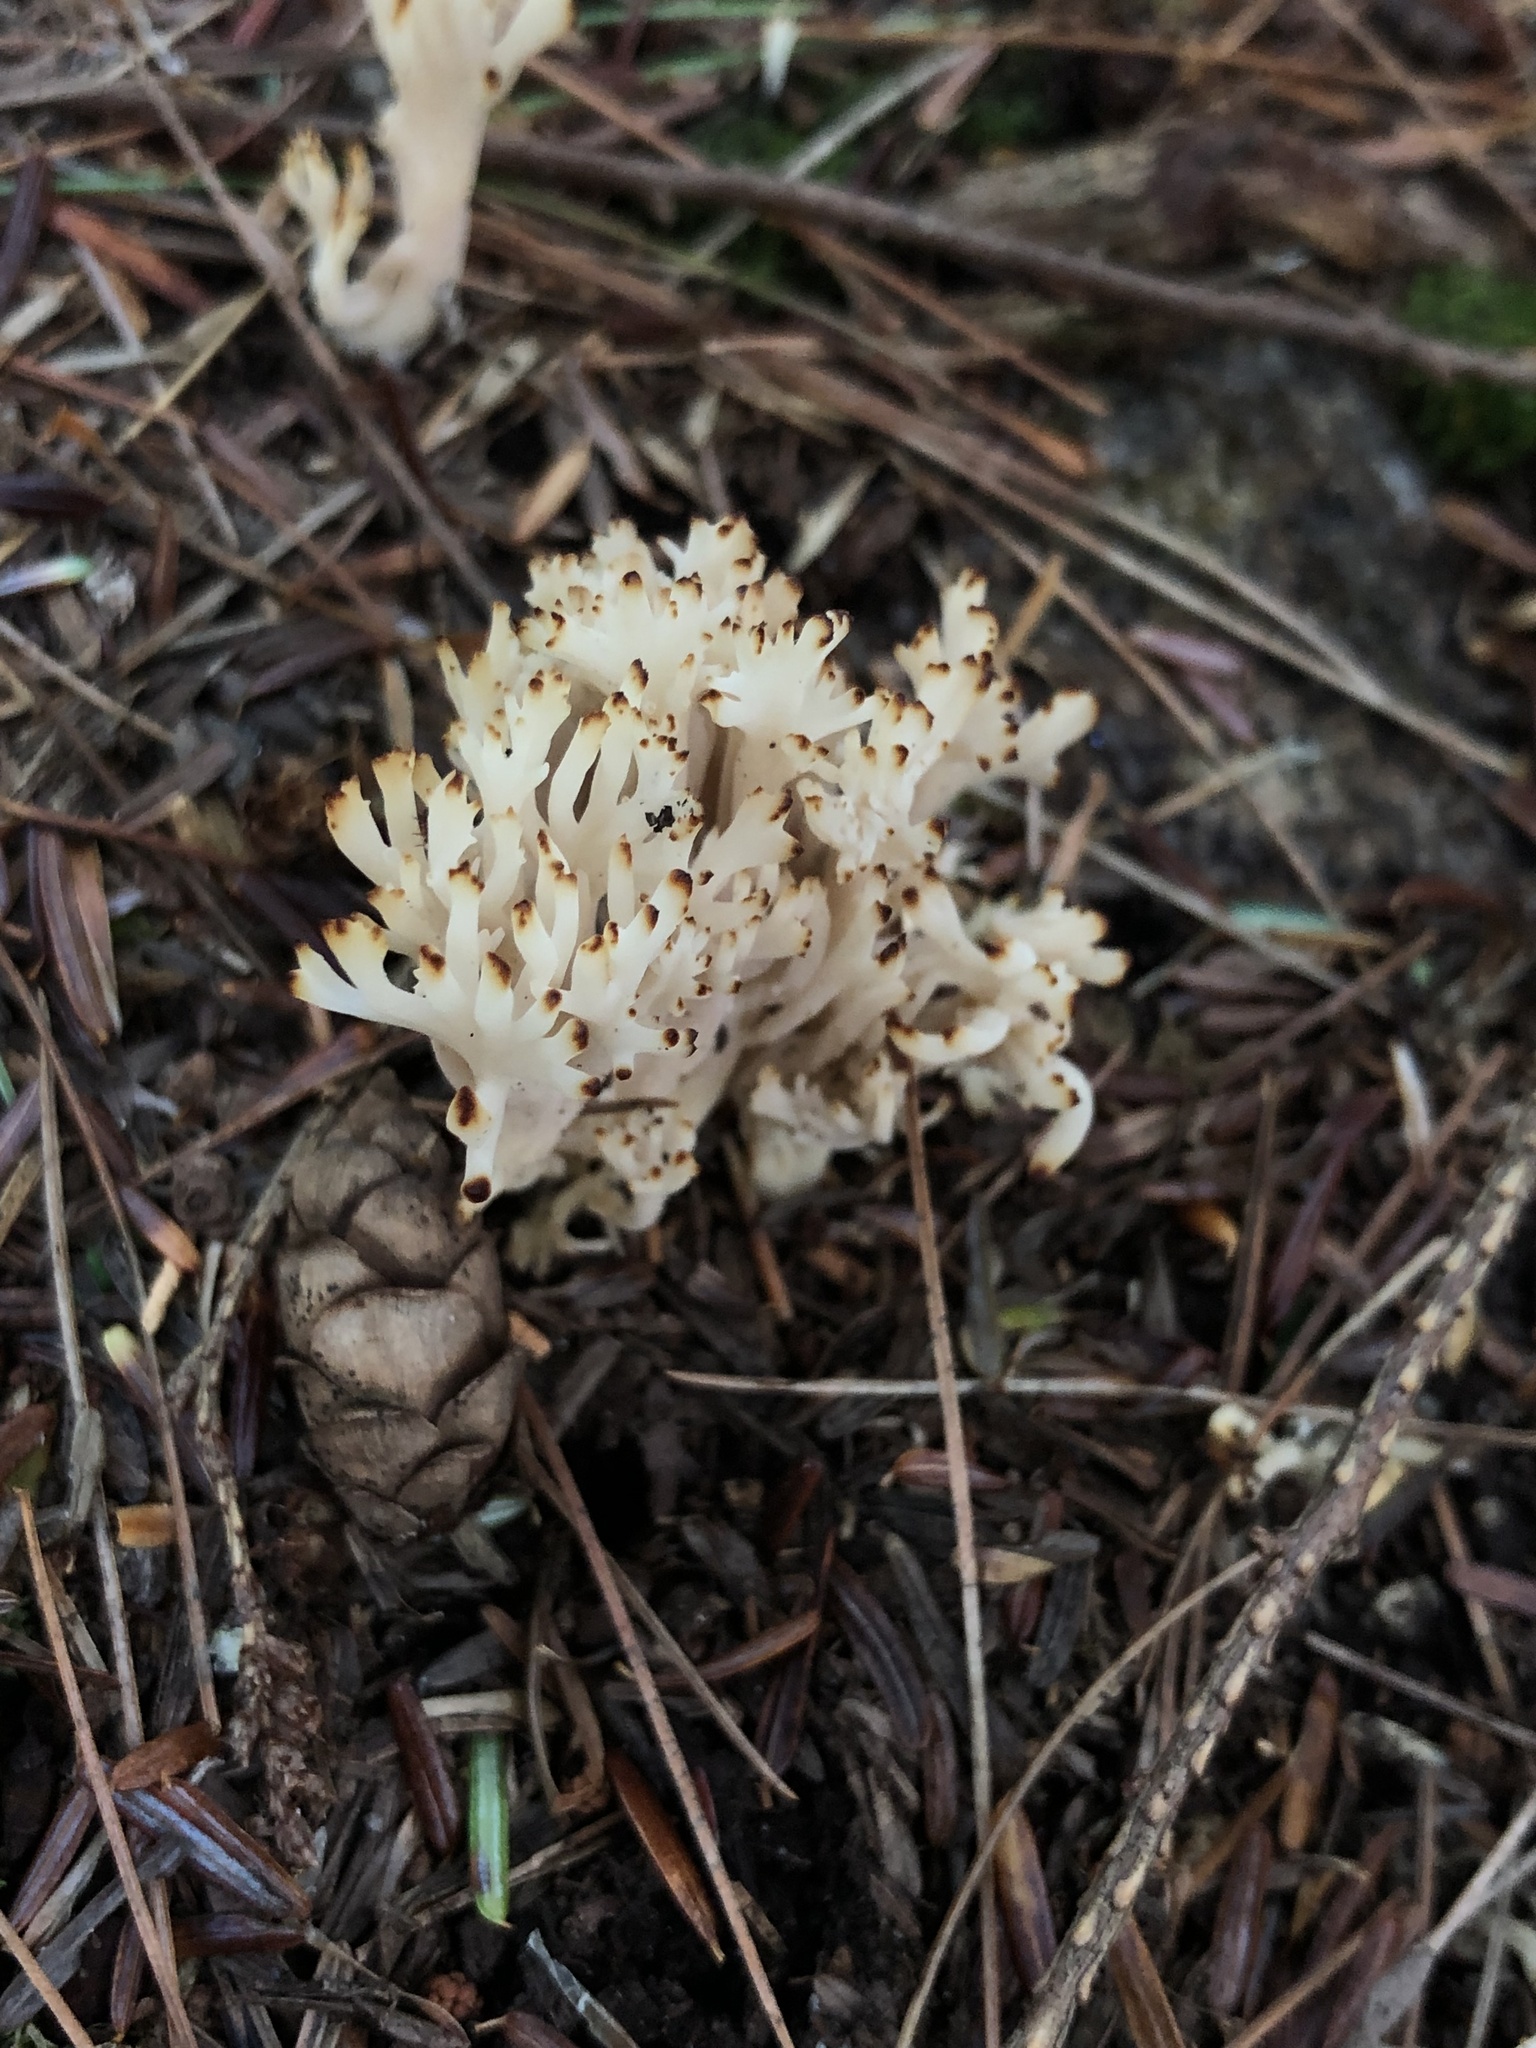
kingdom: Fungi
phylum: Basidiomycota
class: Agaricomycetes
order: Cantharellales
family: Hydnaceae
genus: Clavulina
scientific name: Clavulina coralloides
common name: Crested coral
